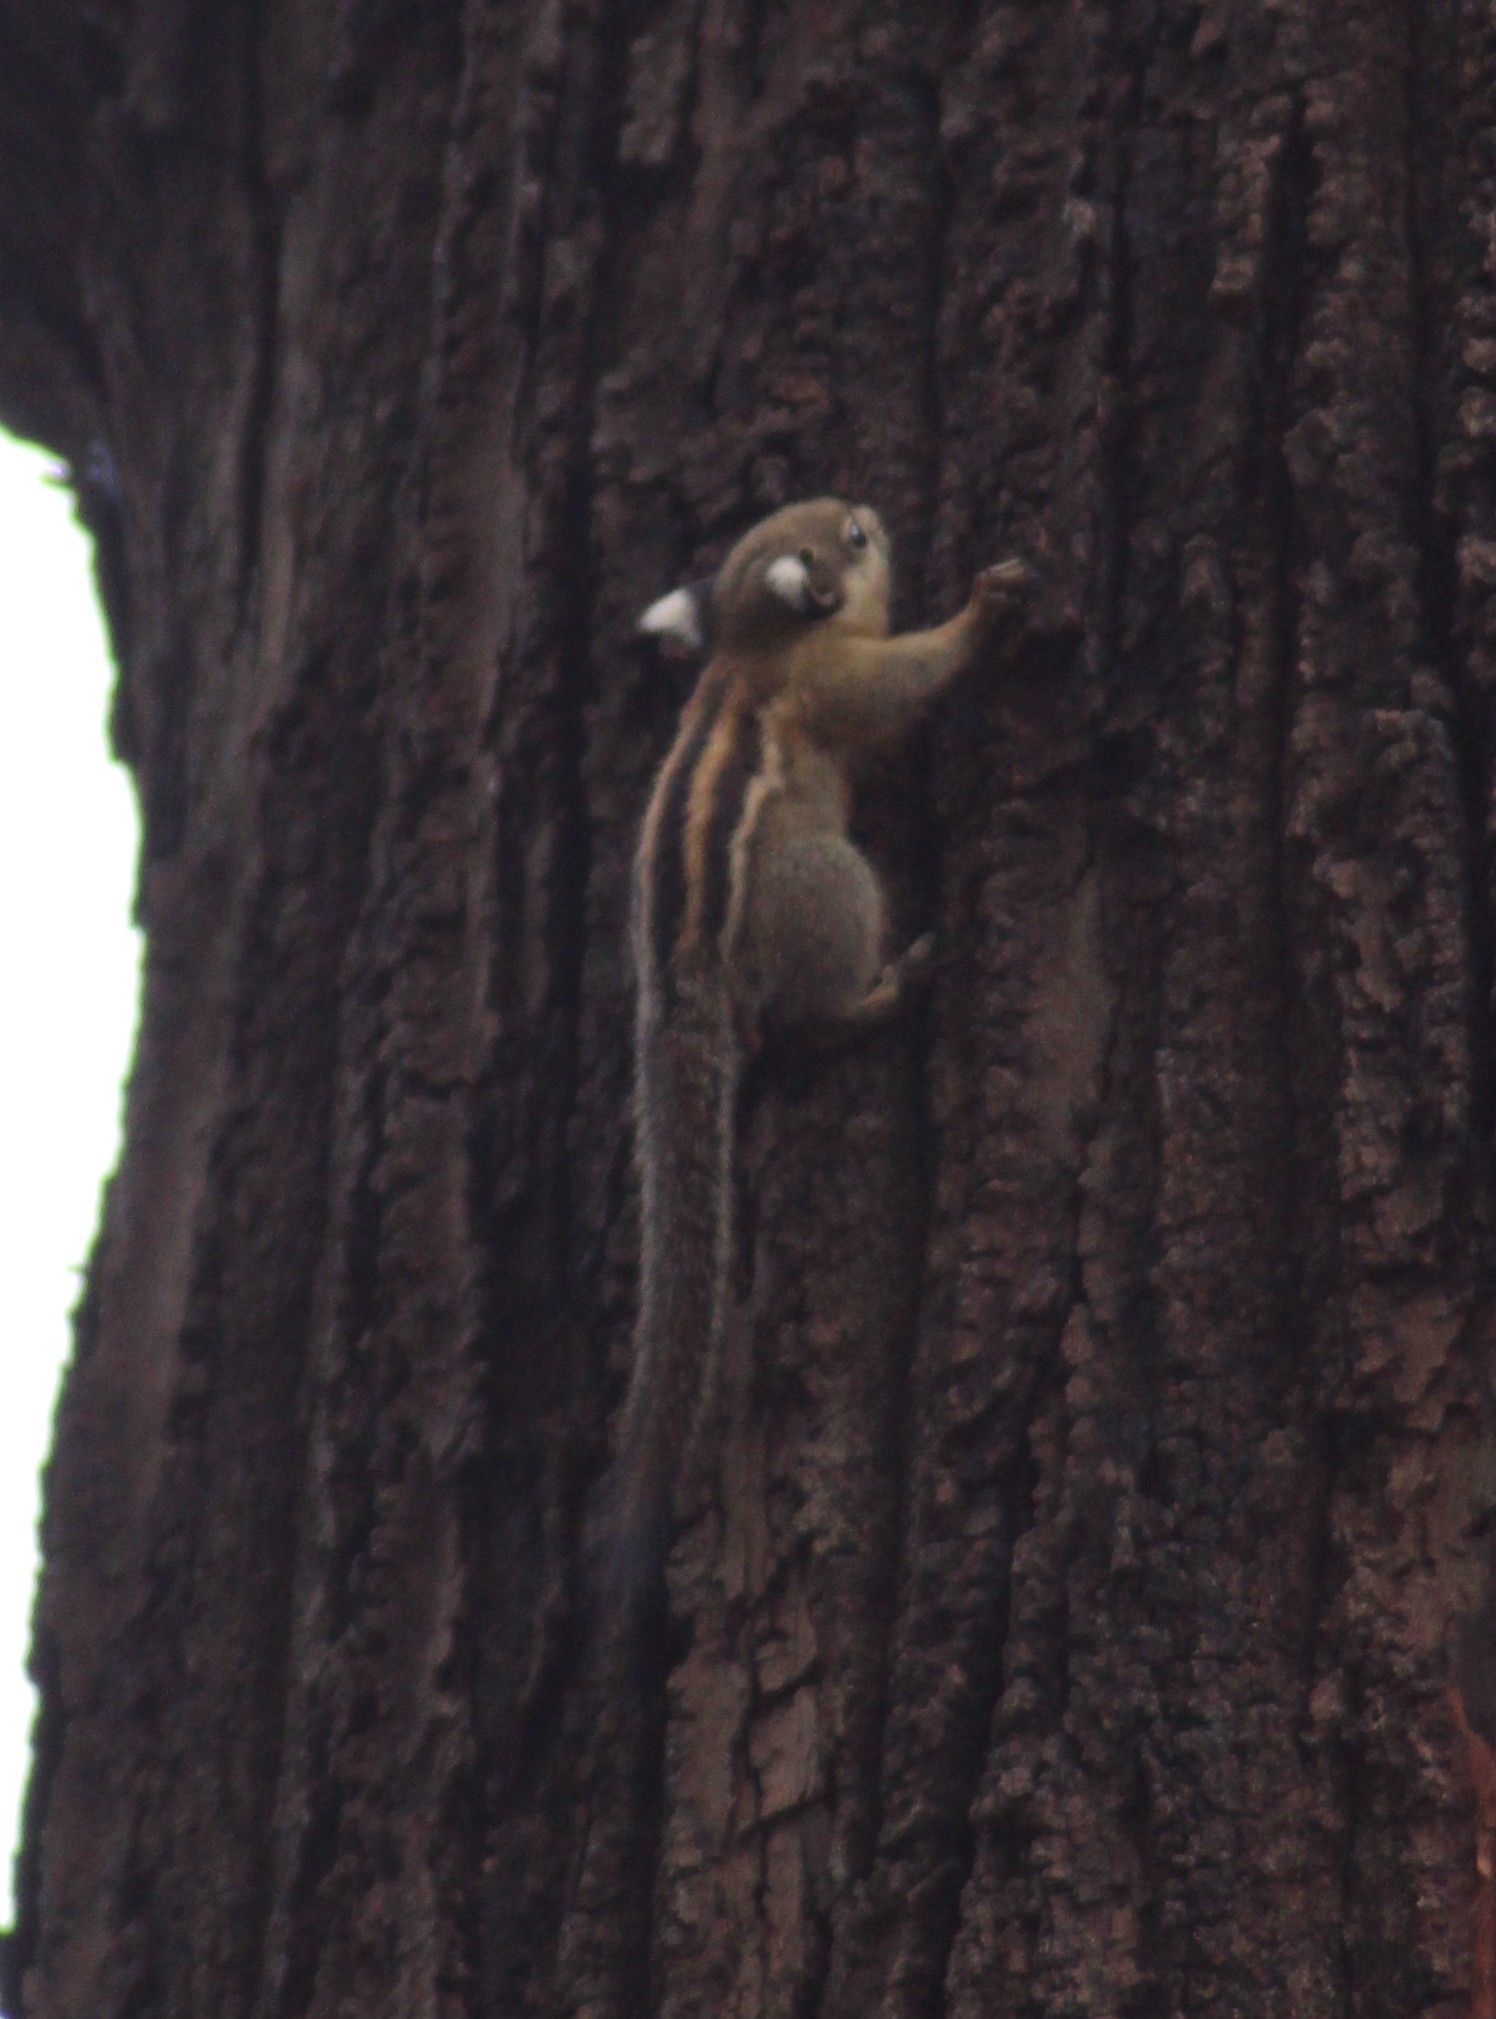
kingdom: Animalia
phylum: Chordata
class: Mammalia
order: Rodentia
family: Sciuridae
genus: Tamiops
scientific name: Tamiops rodolphii
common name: Cambodian striped squirrel
